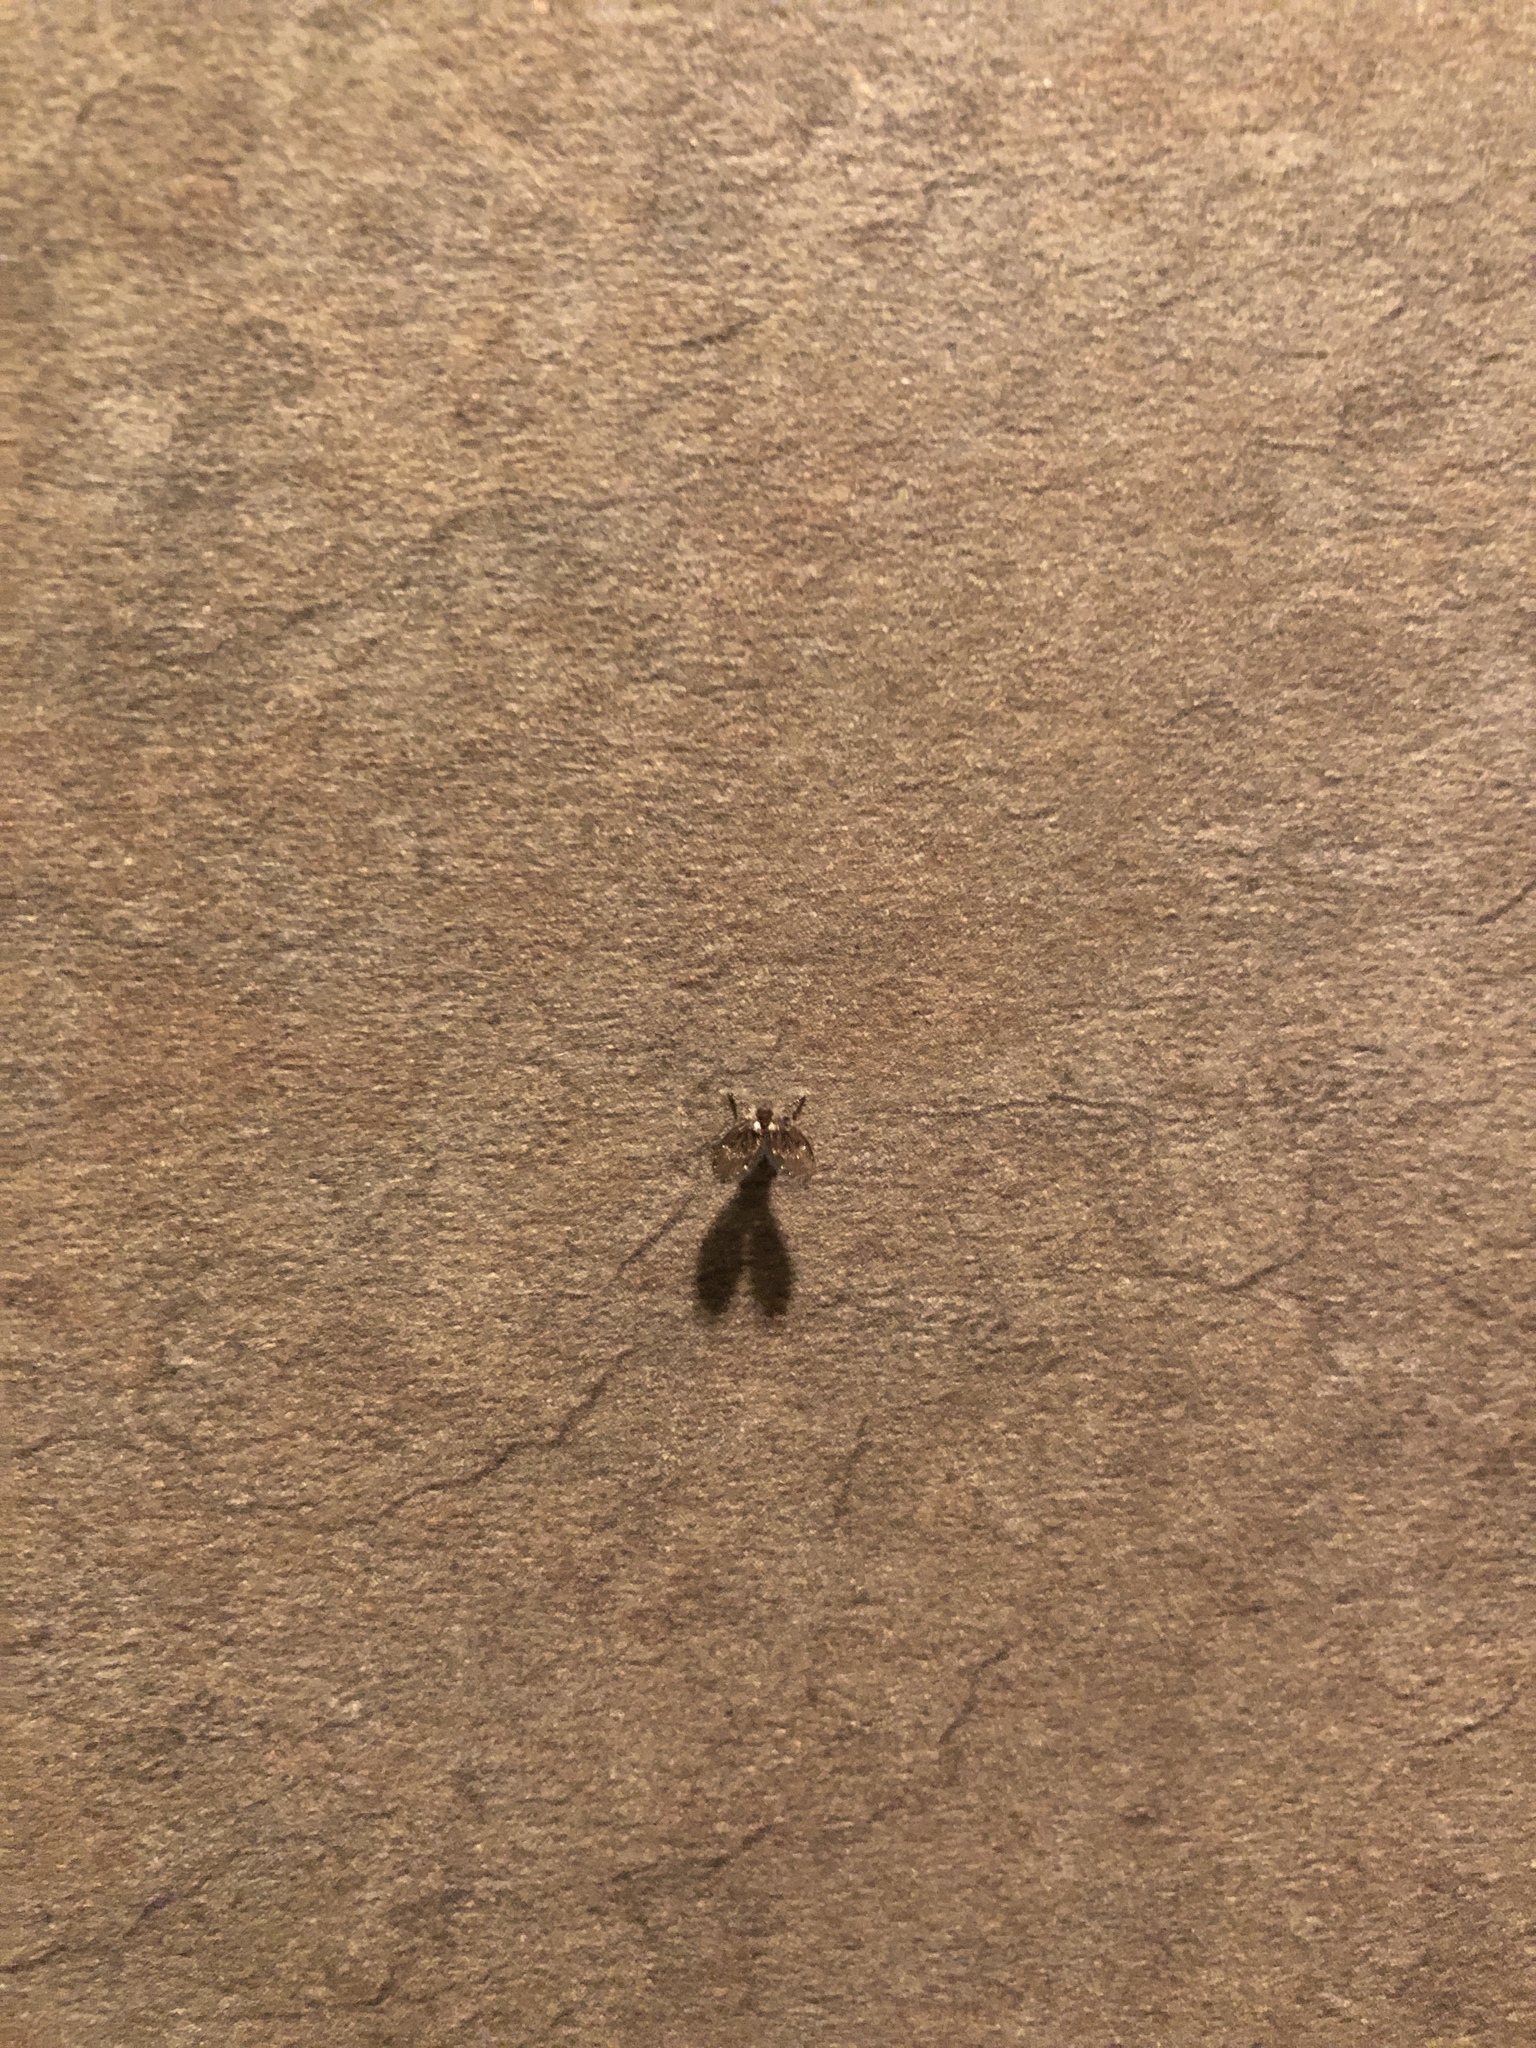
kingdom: Animalia
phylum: Arthropoda
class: Insecta
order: Diptera
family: Psychodidae
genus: Clogmia
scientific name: Clogmia albipunctatus
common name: White-spotted moth fly
